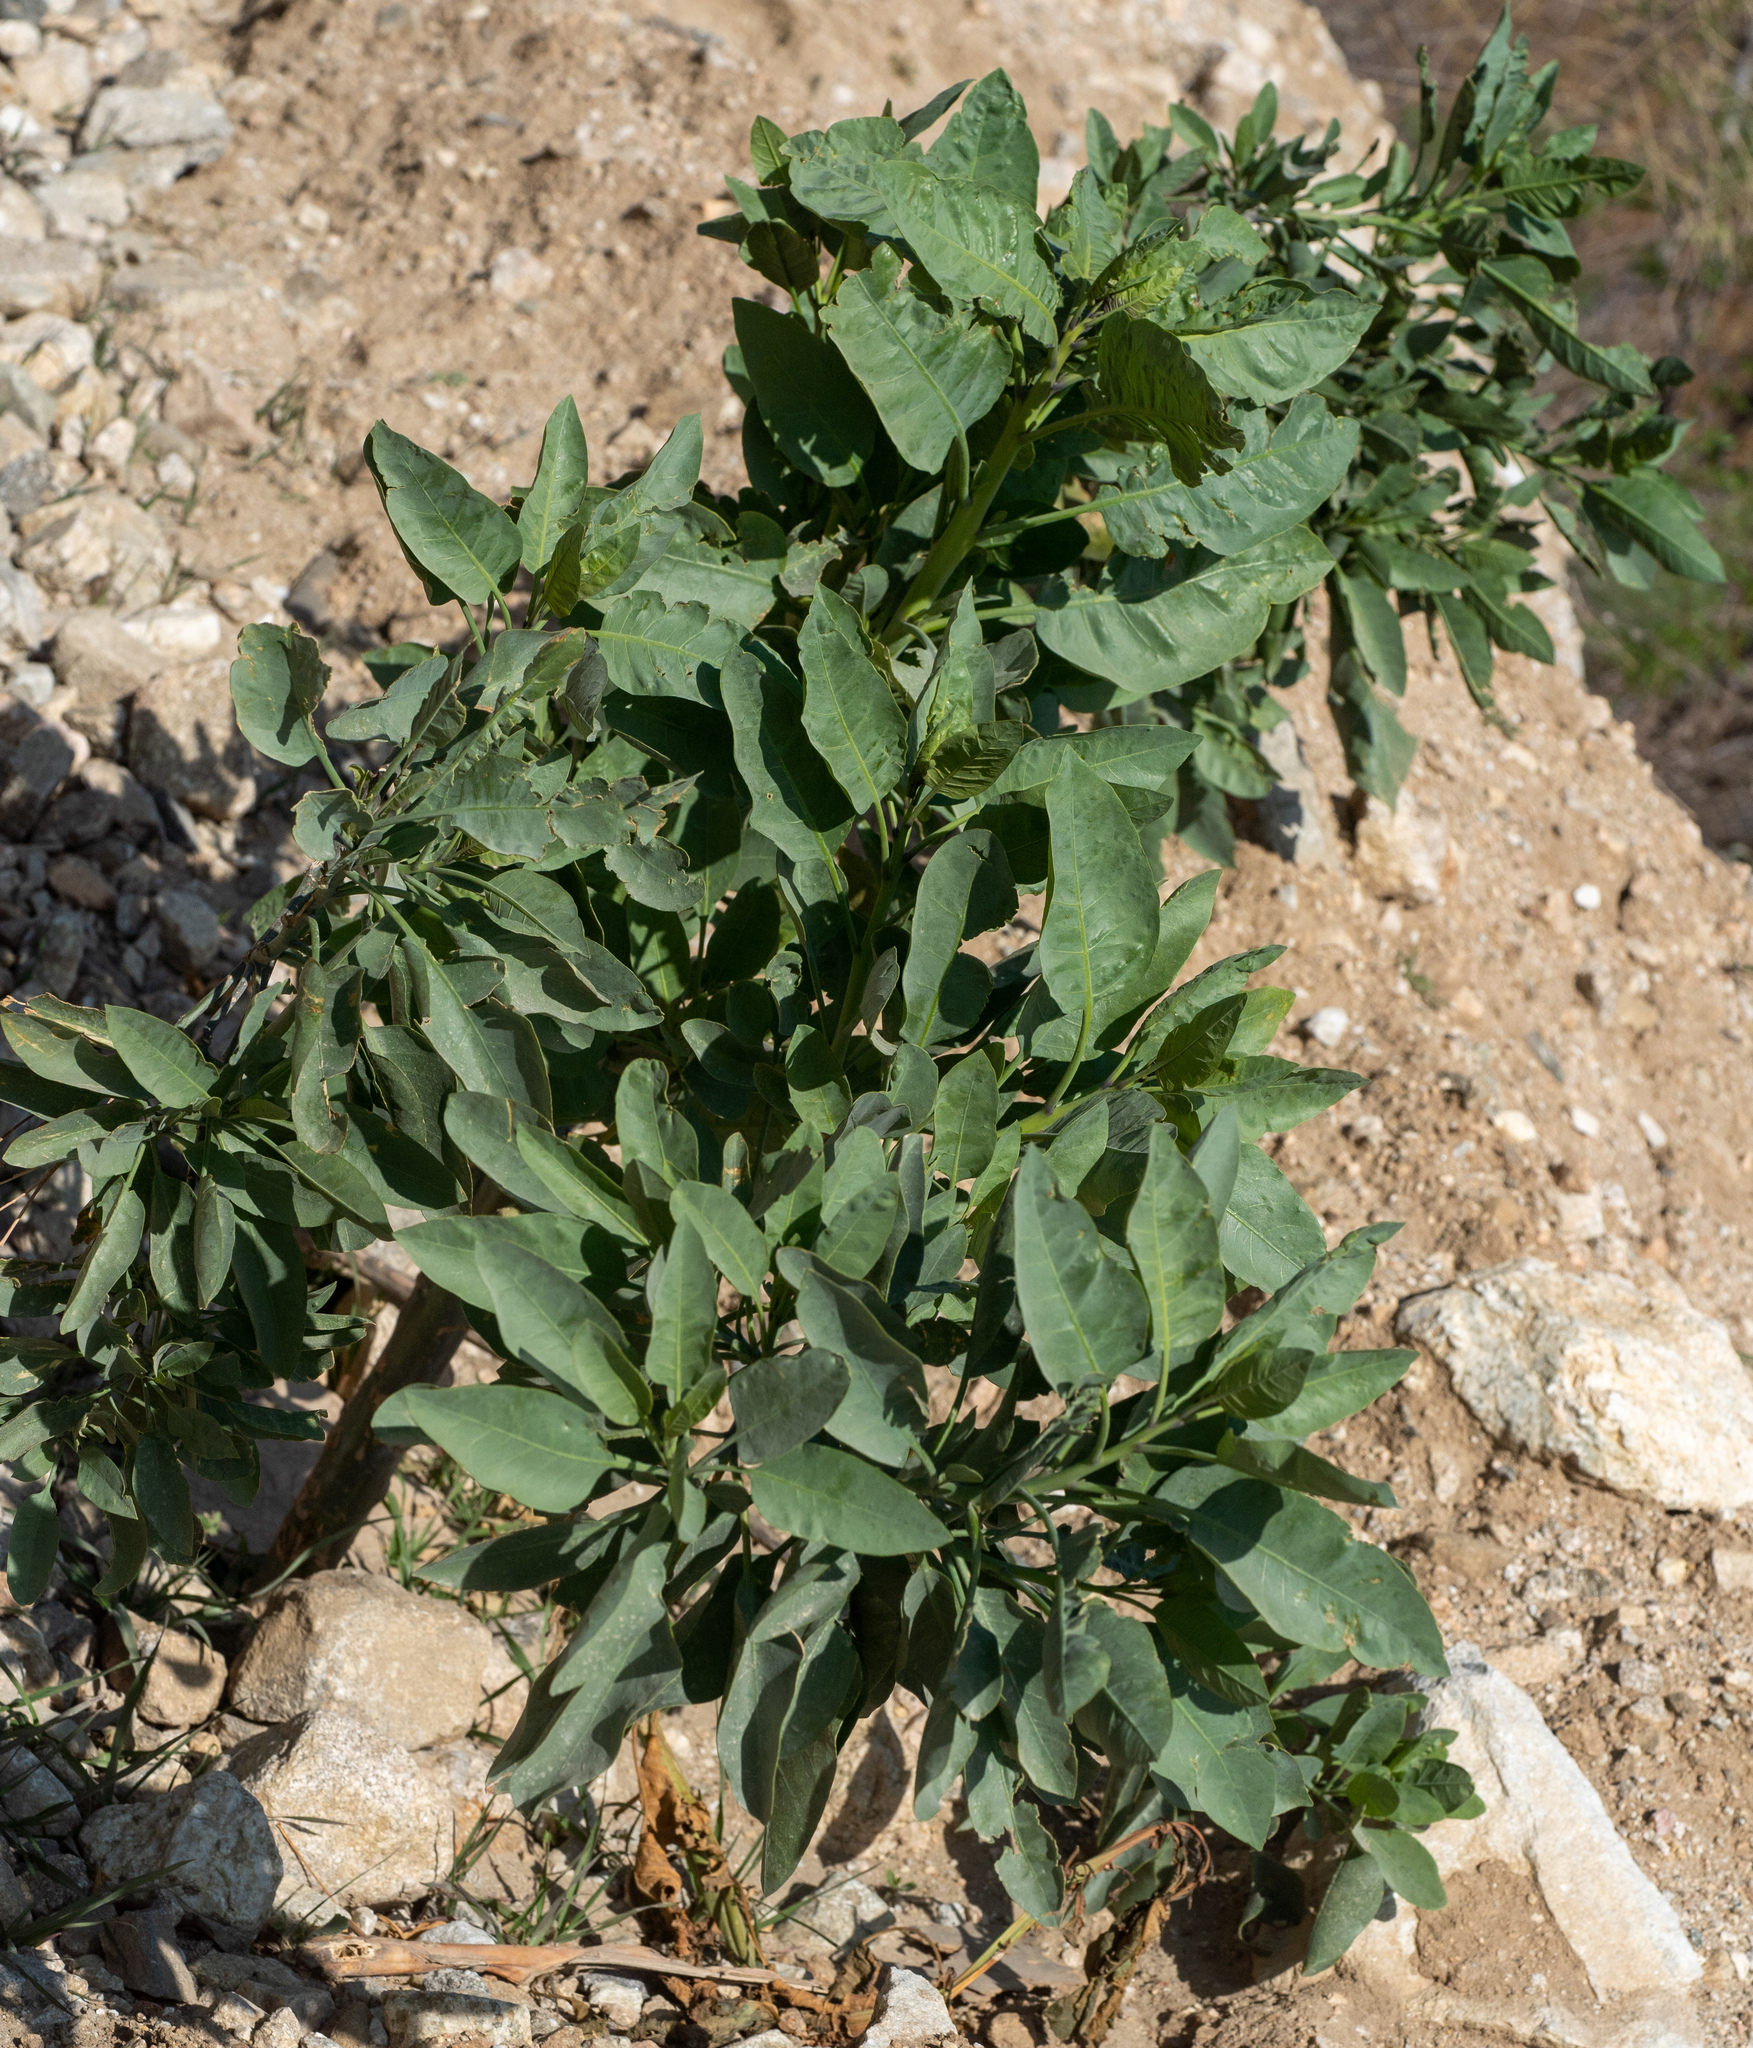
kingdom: Plantae
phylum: Tracheophyta
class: Magnoliopsida
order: Solanales
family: Solanaceae
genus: Nicotiana
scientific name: Nicotiana glauca
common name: Tree tobacco
